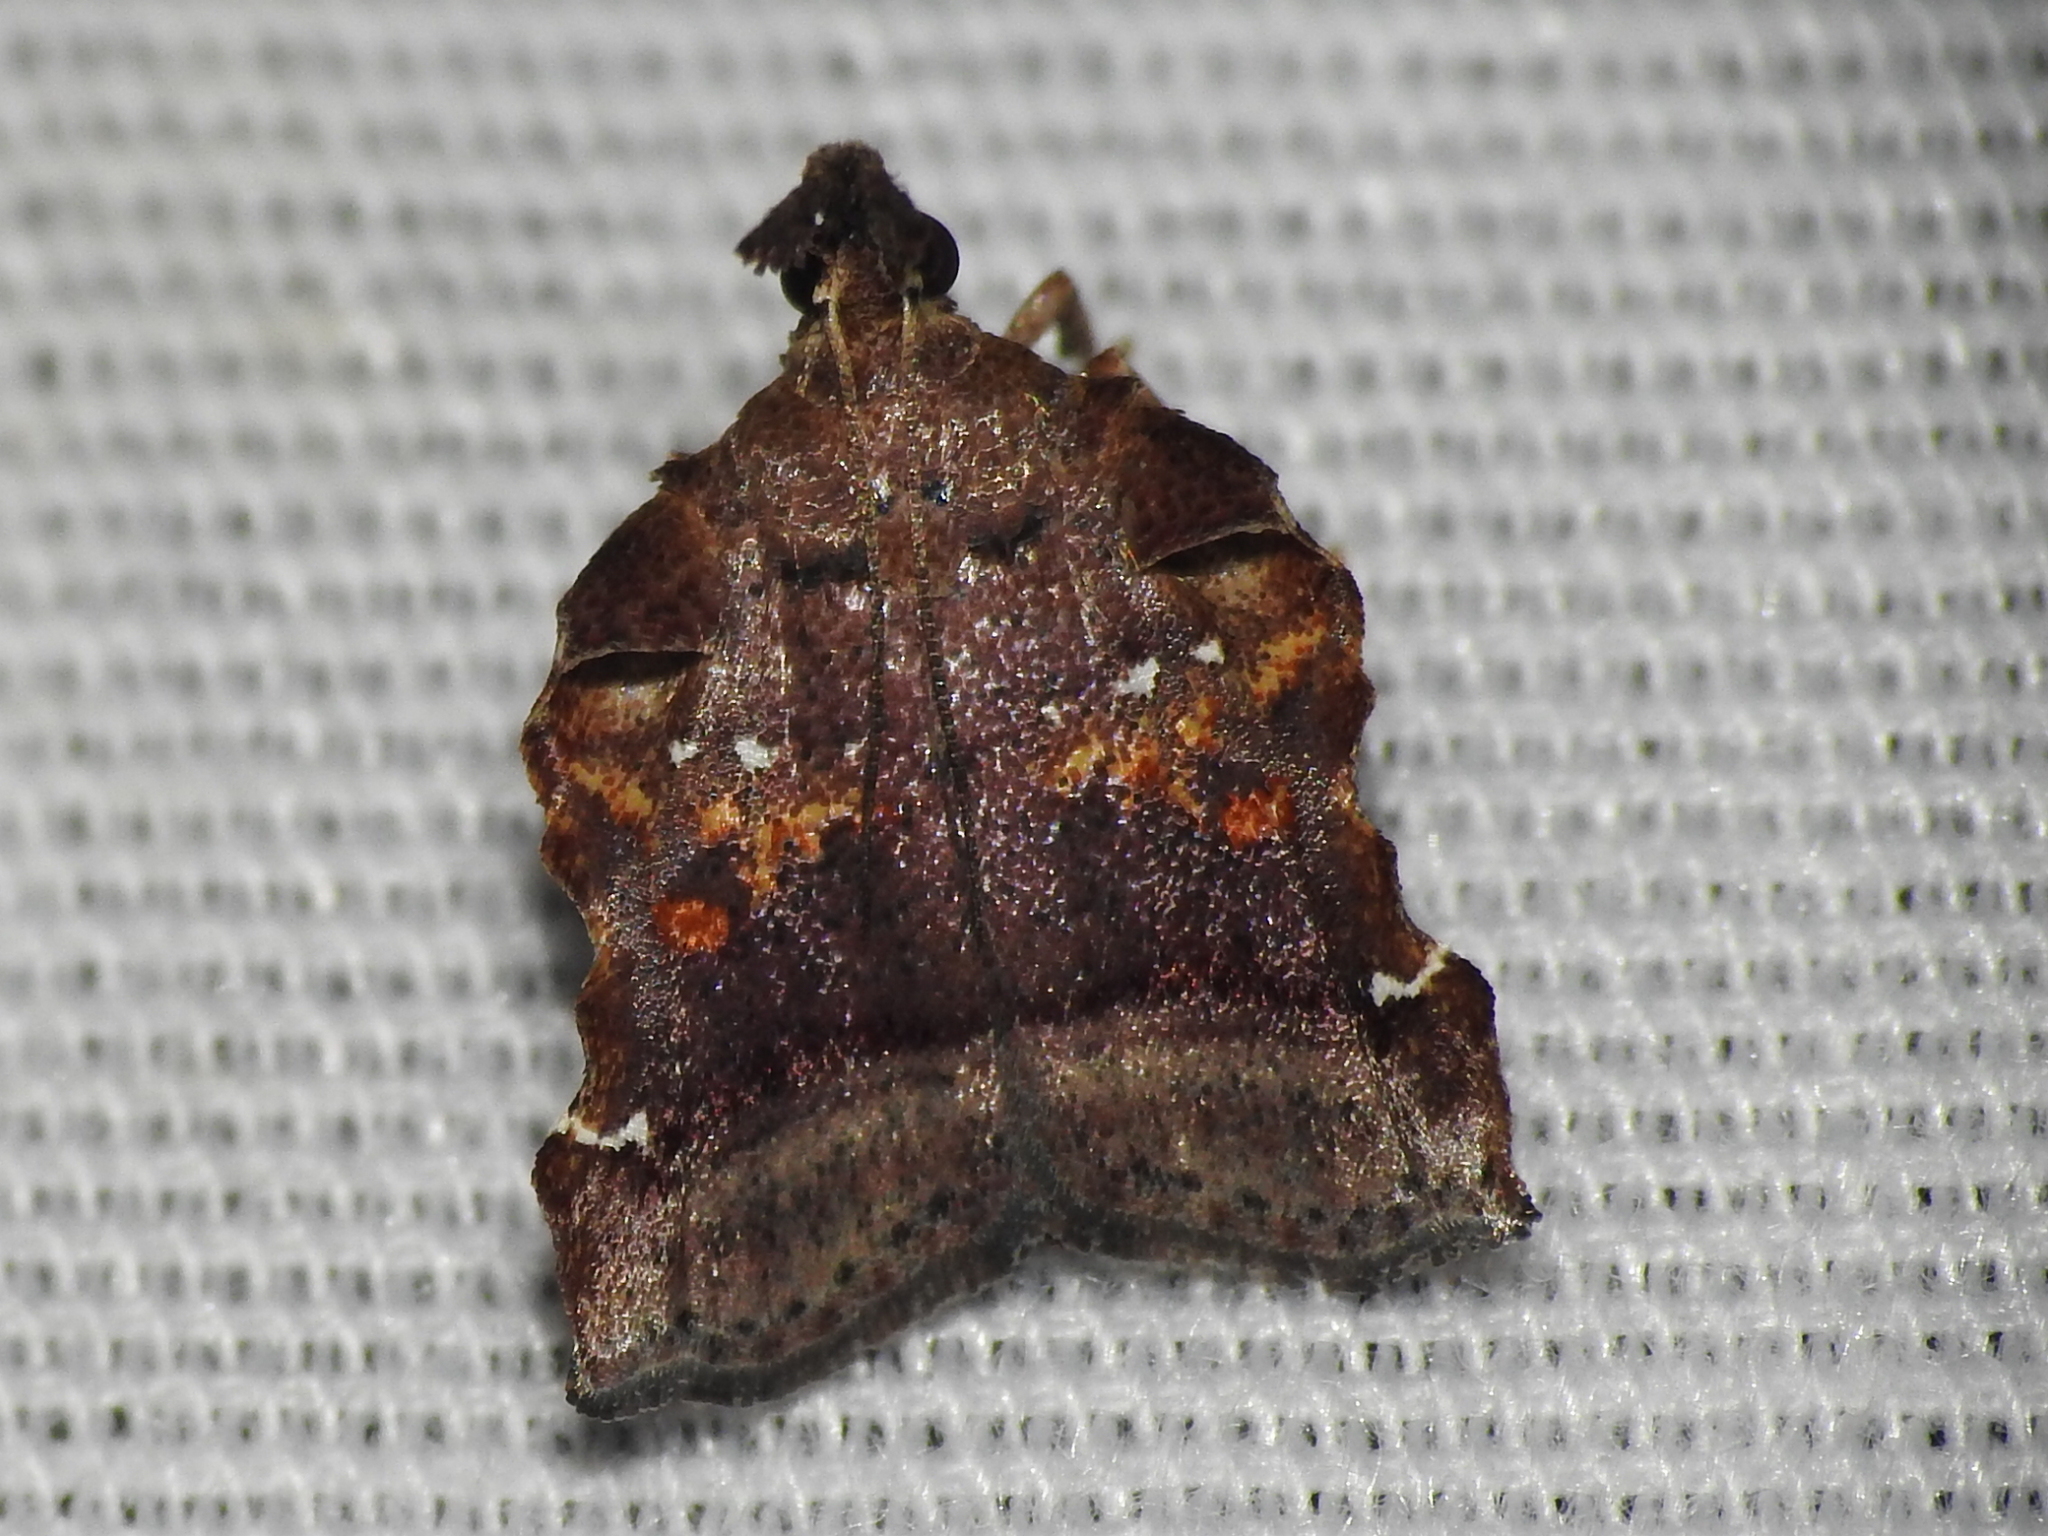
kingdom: Animalia
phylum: Arthropoda
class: Insecta
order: Lepidoptera
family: Pyralidae
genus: Clydonopteron
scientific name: Clydonopteron sacculana
